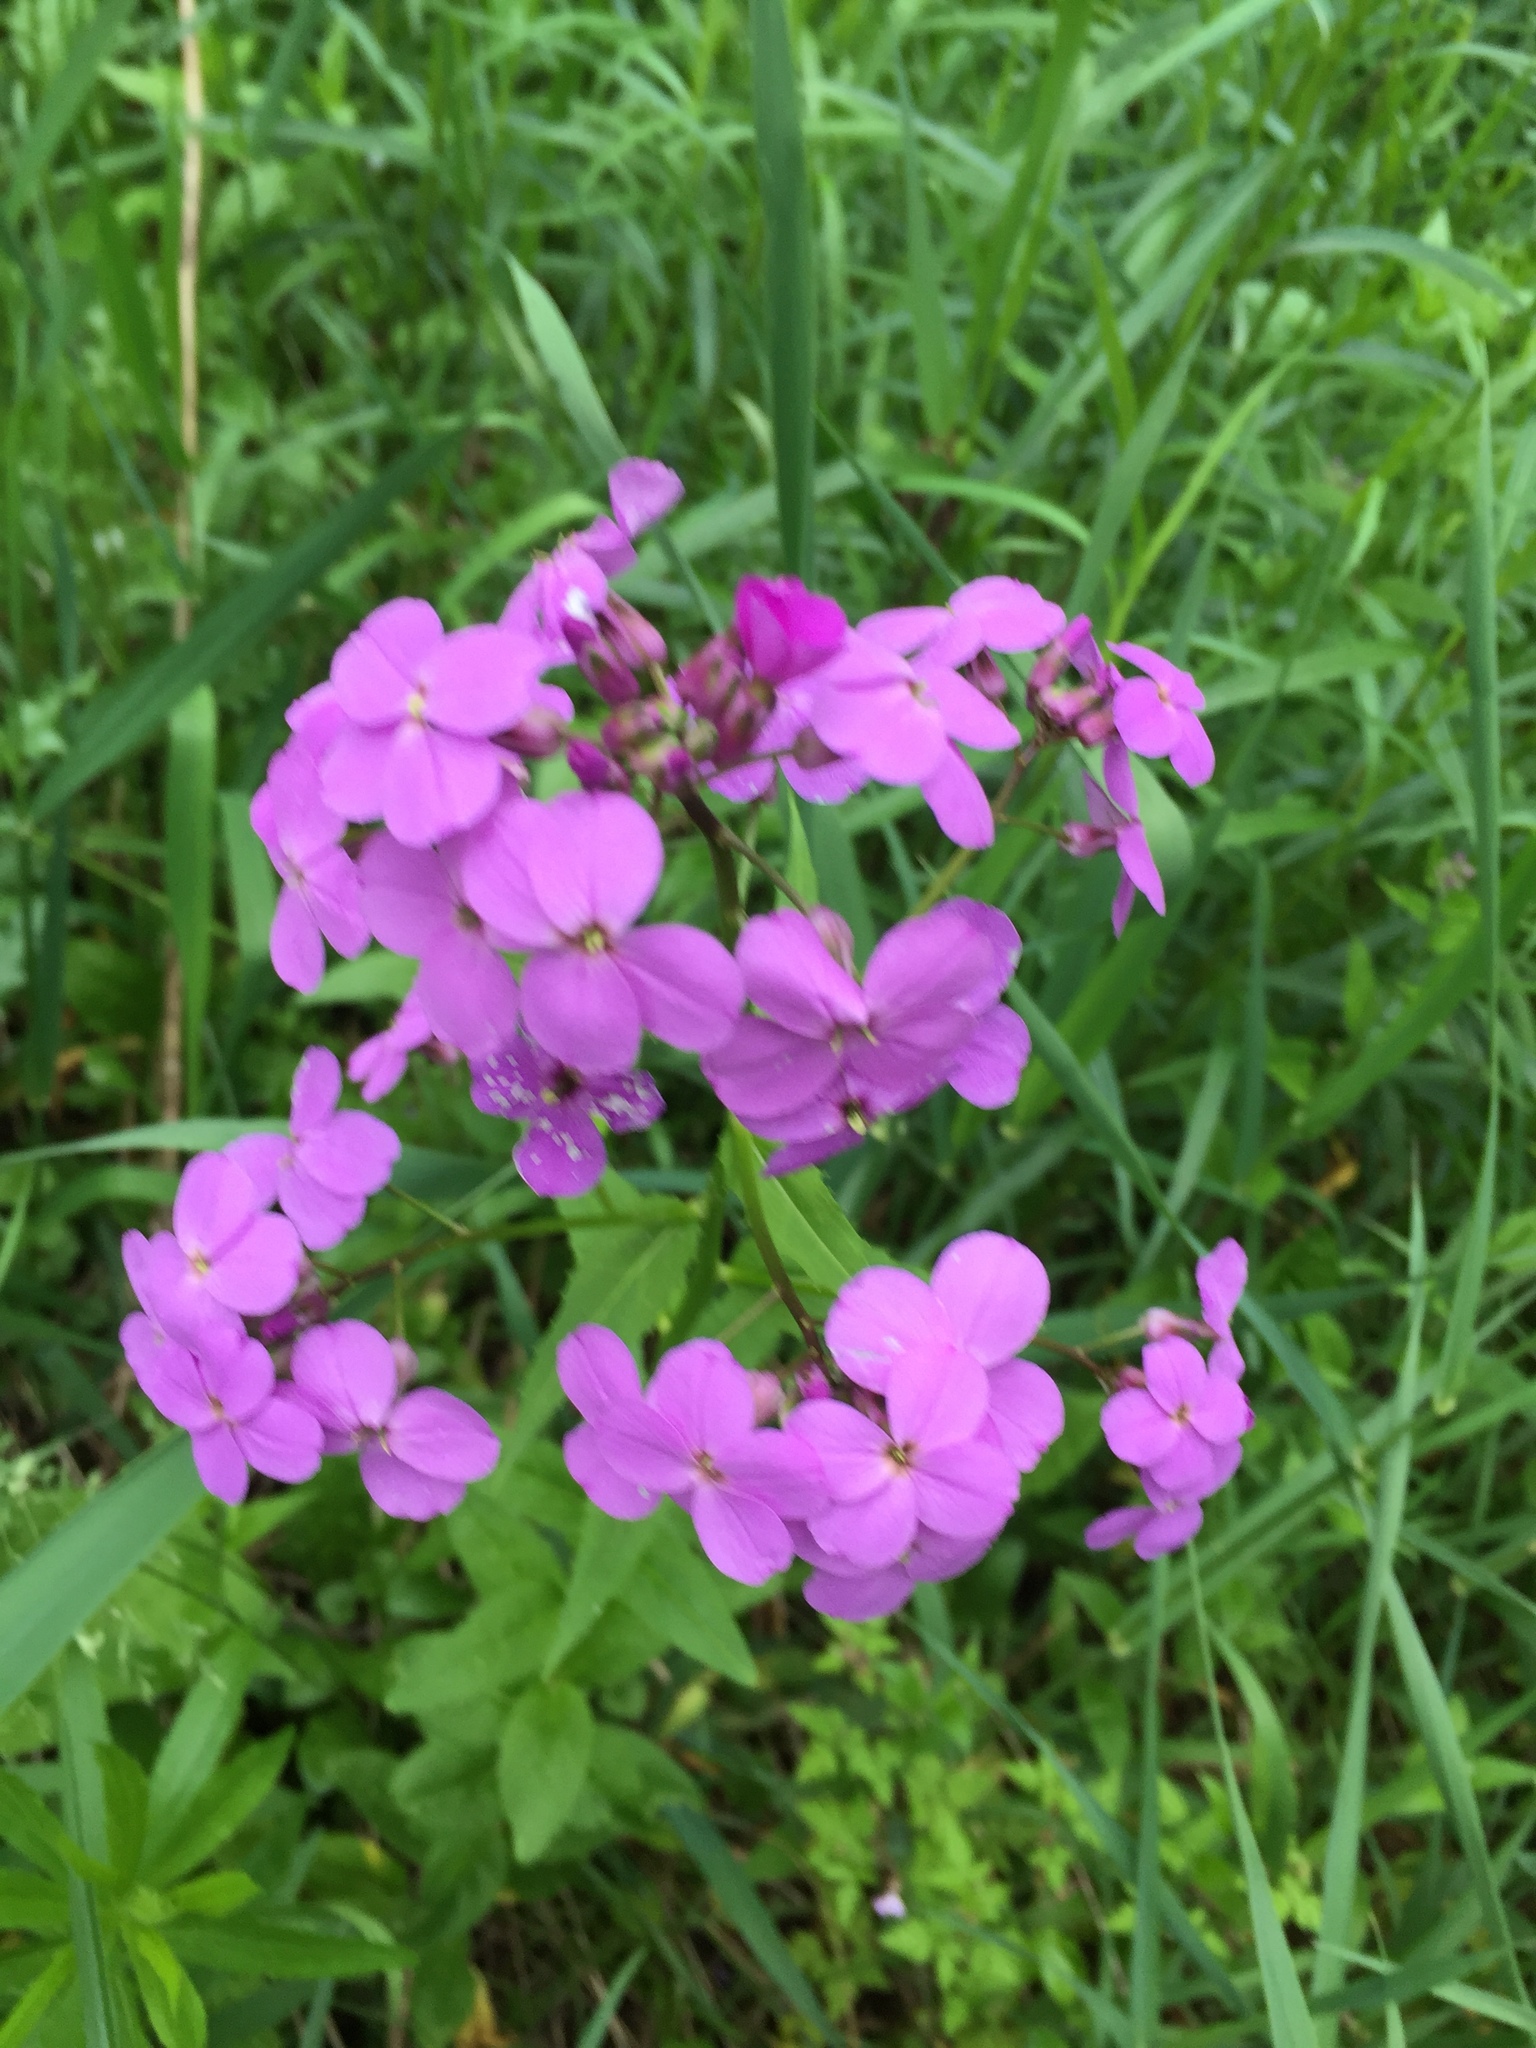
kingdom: Plantae
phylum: Tracheophyta
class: Magnoliopsida
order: Brassicales
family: Brassicaceae
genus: Hesperis
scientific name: Hesperis matronalis
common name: Dame's-violet
